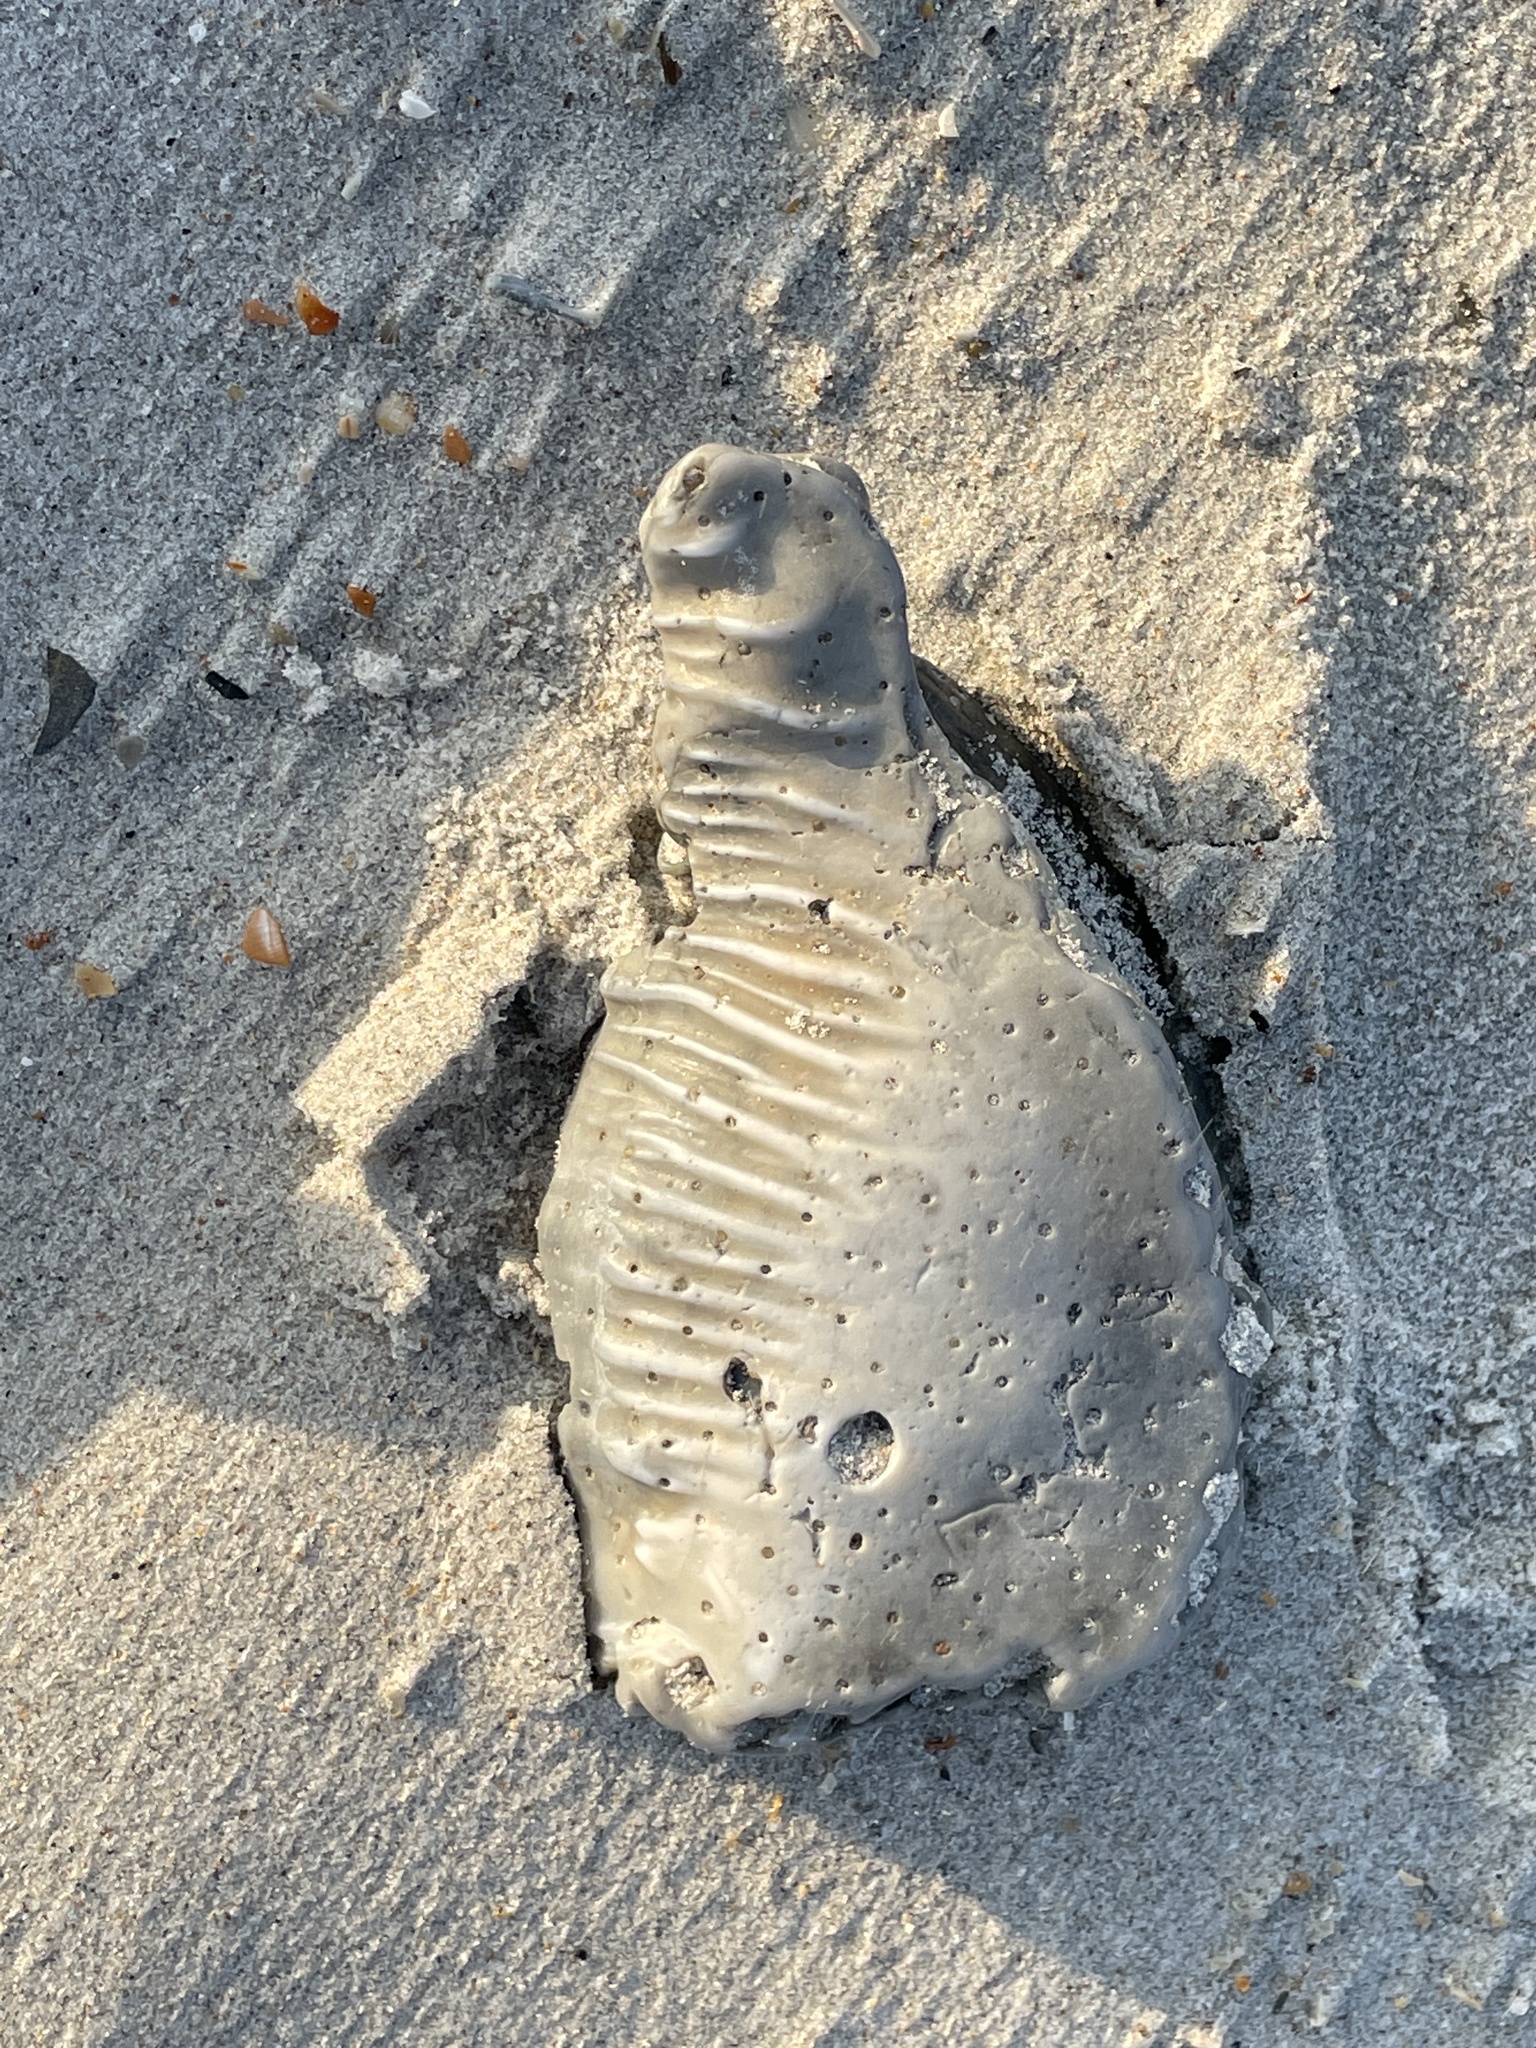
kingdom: Animalia
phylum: Mollusca
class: Gastropoda
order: Littorinimorpha
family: Cassidae
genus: Cassis
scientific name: Cassis madagascariensis
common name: Cameo helmet
